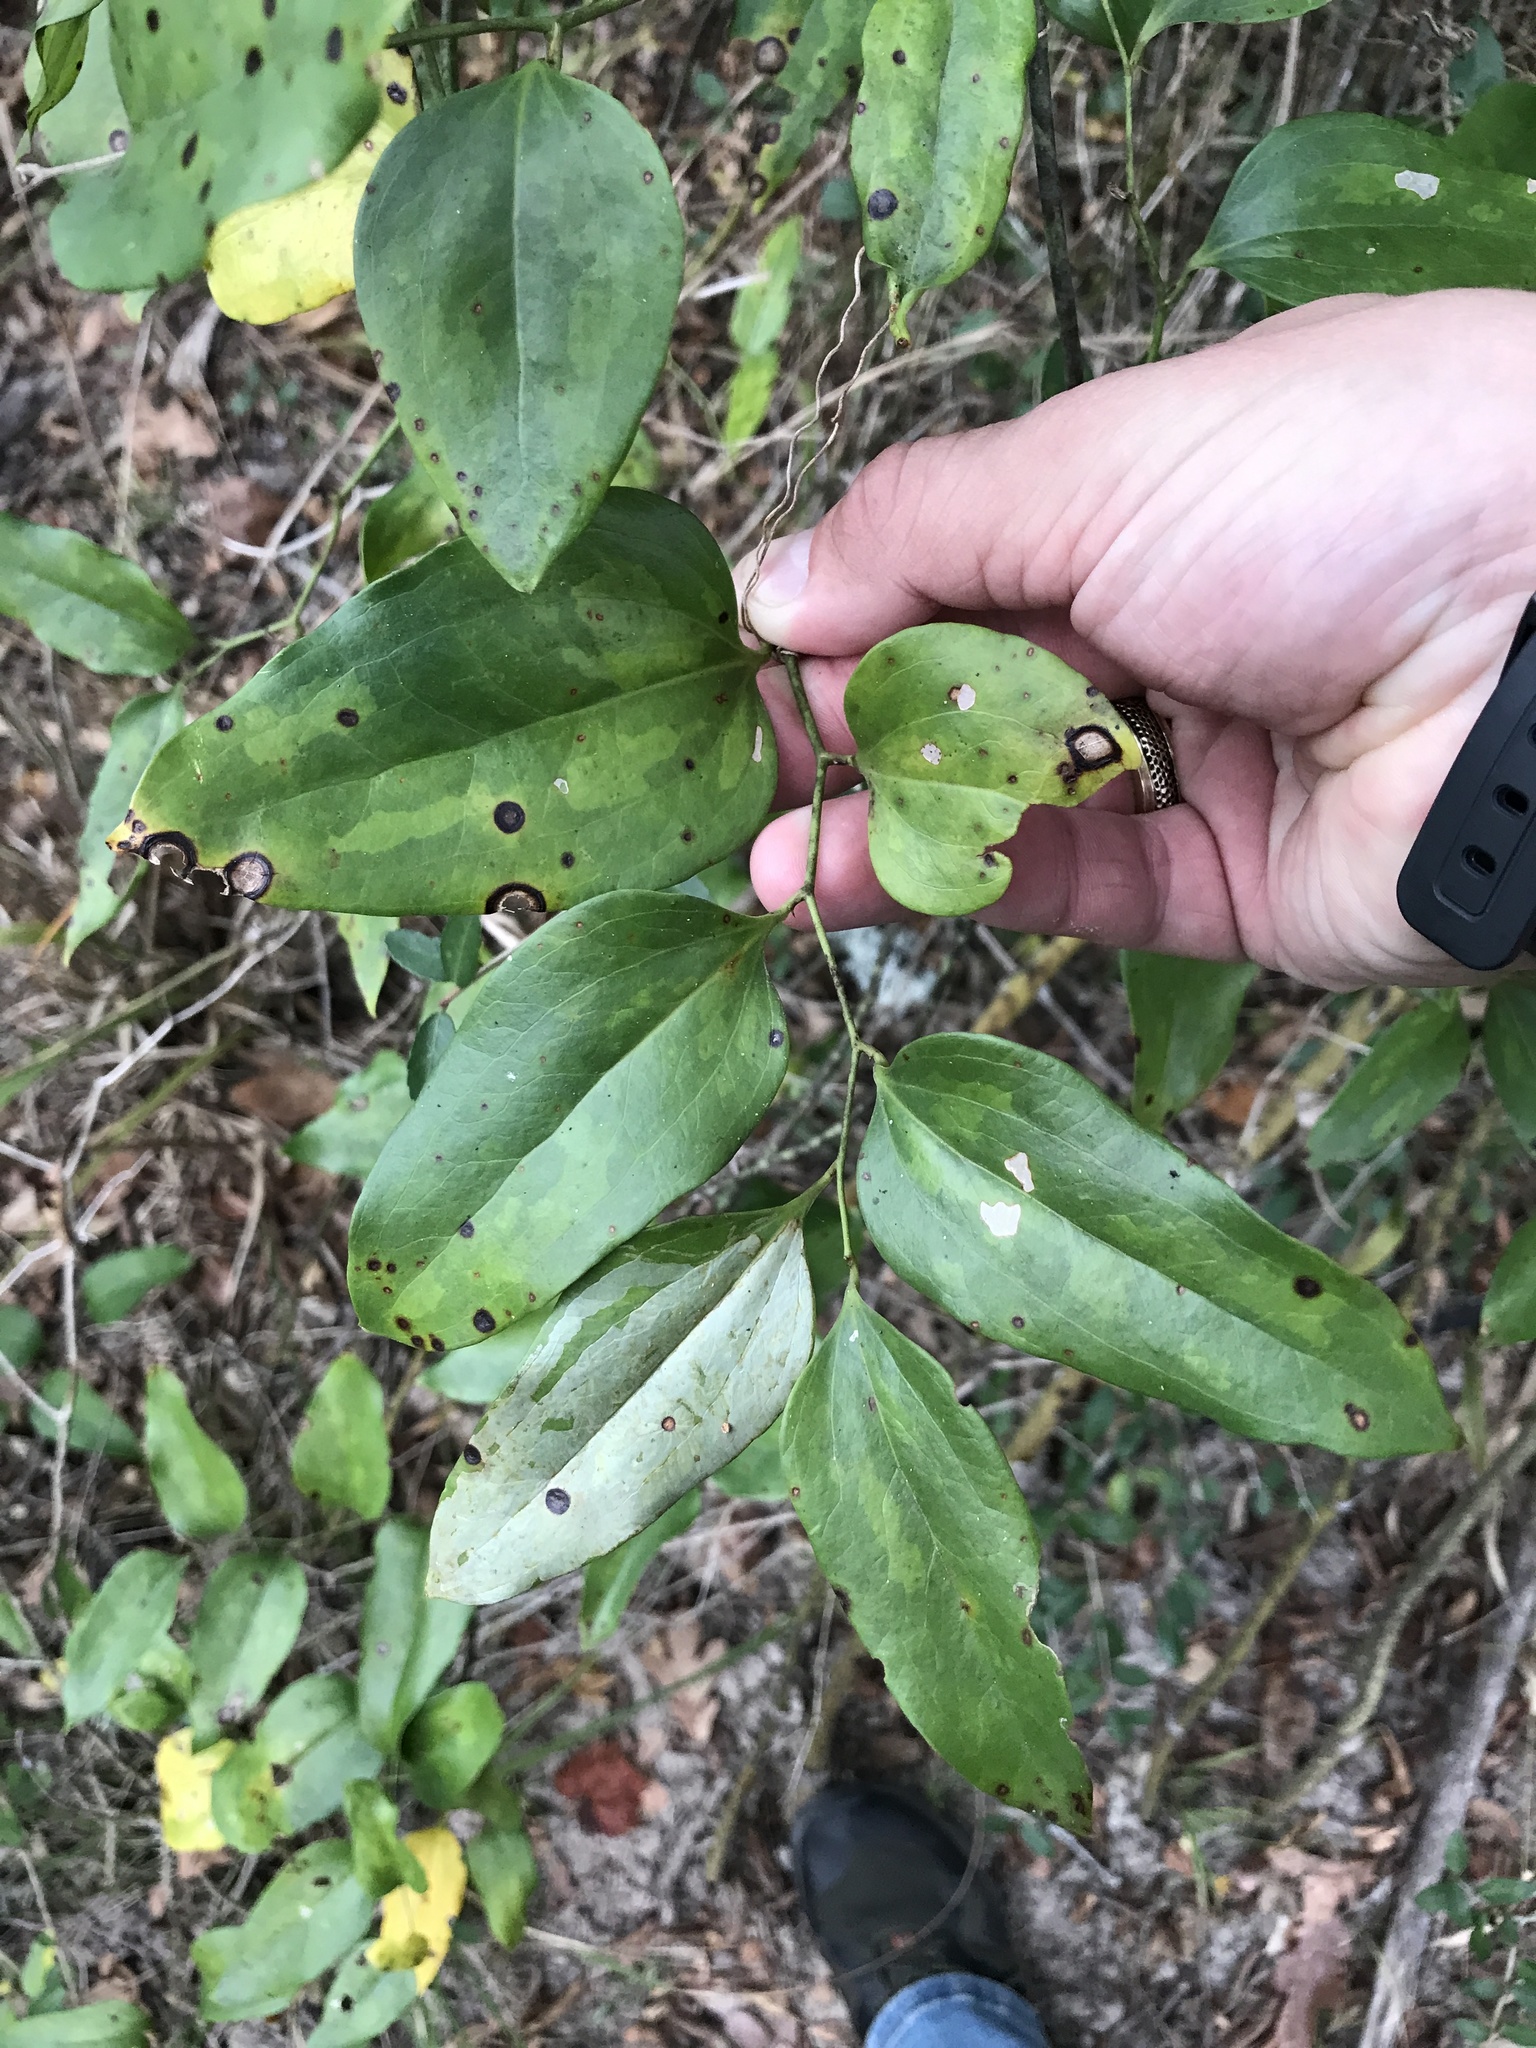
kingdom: Plantae
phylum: Tracheophyta
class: Liliopsida
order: Liliales
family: Smilacaceae
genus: Smilax
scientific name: Smilax maritima
